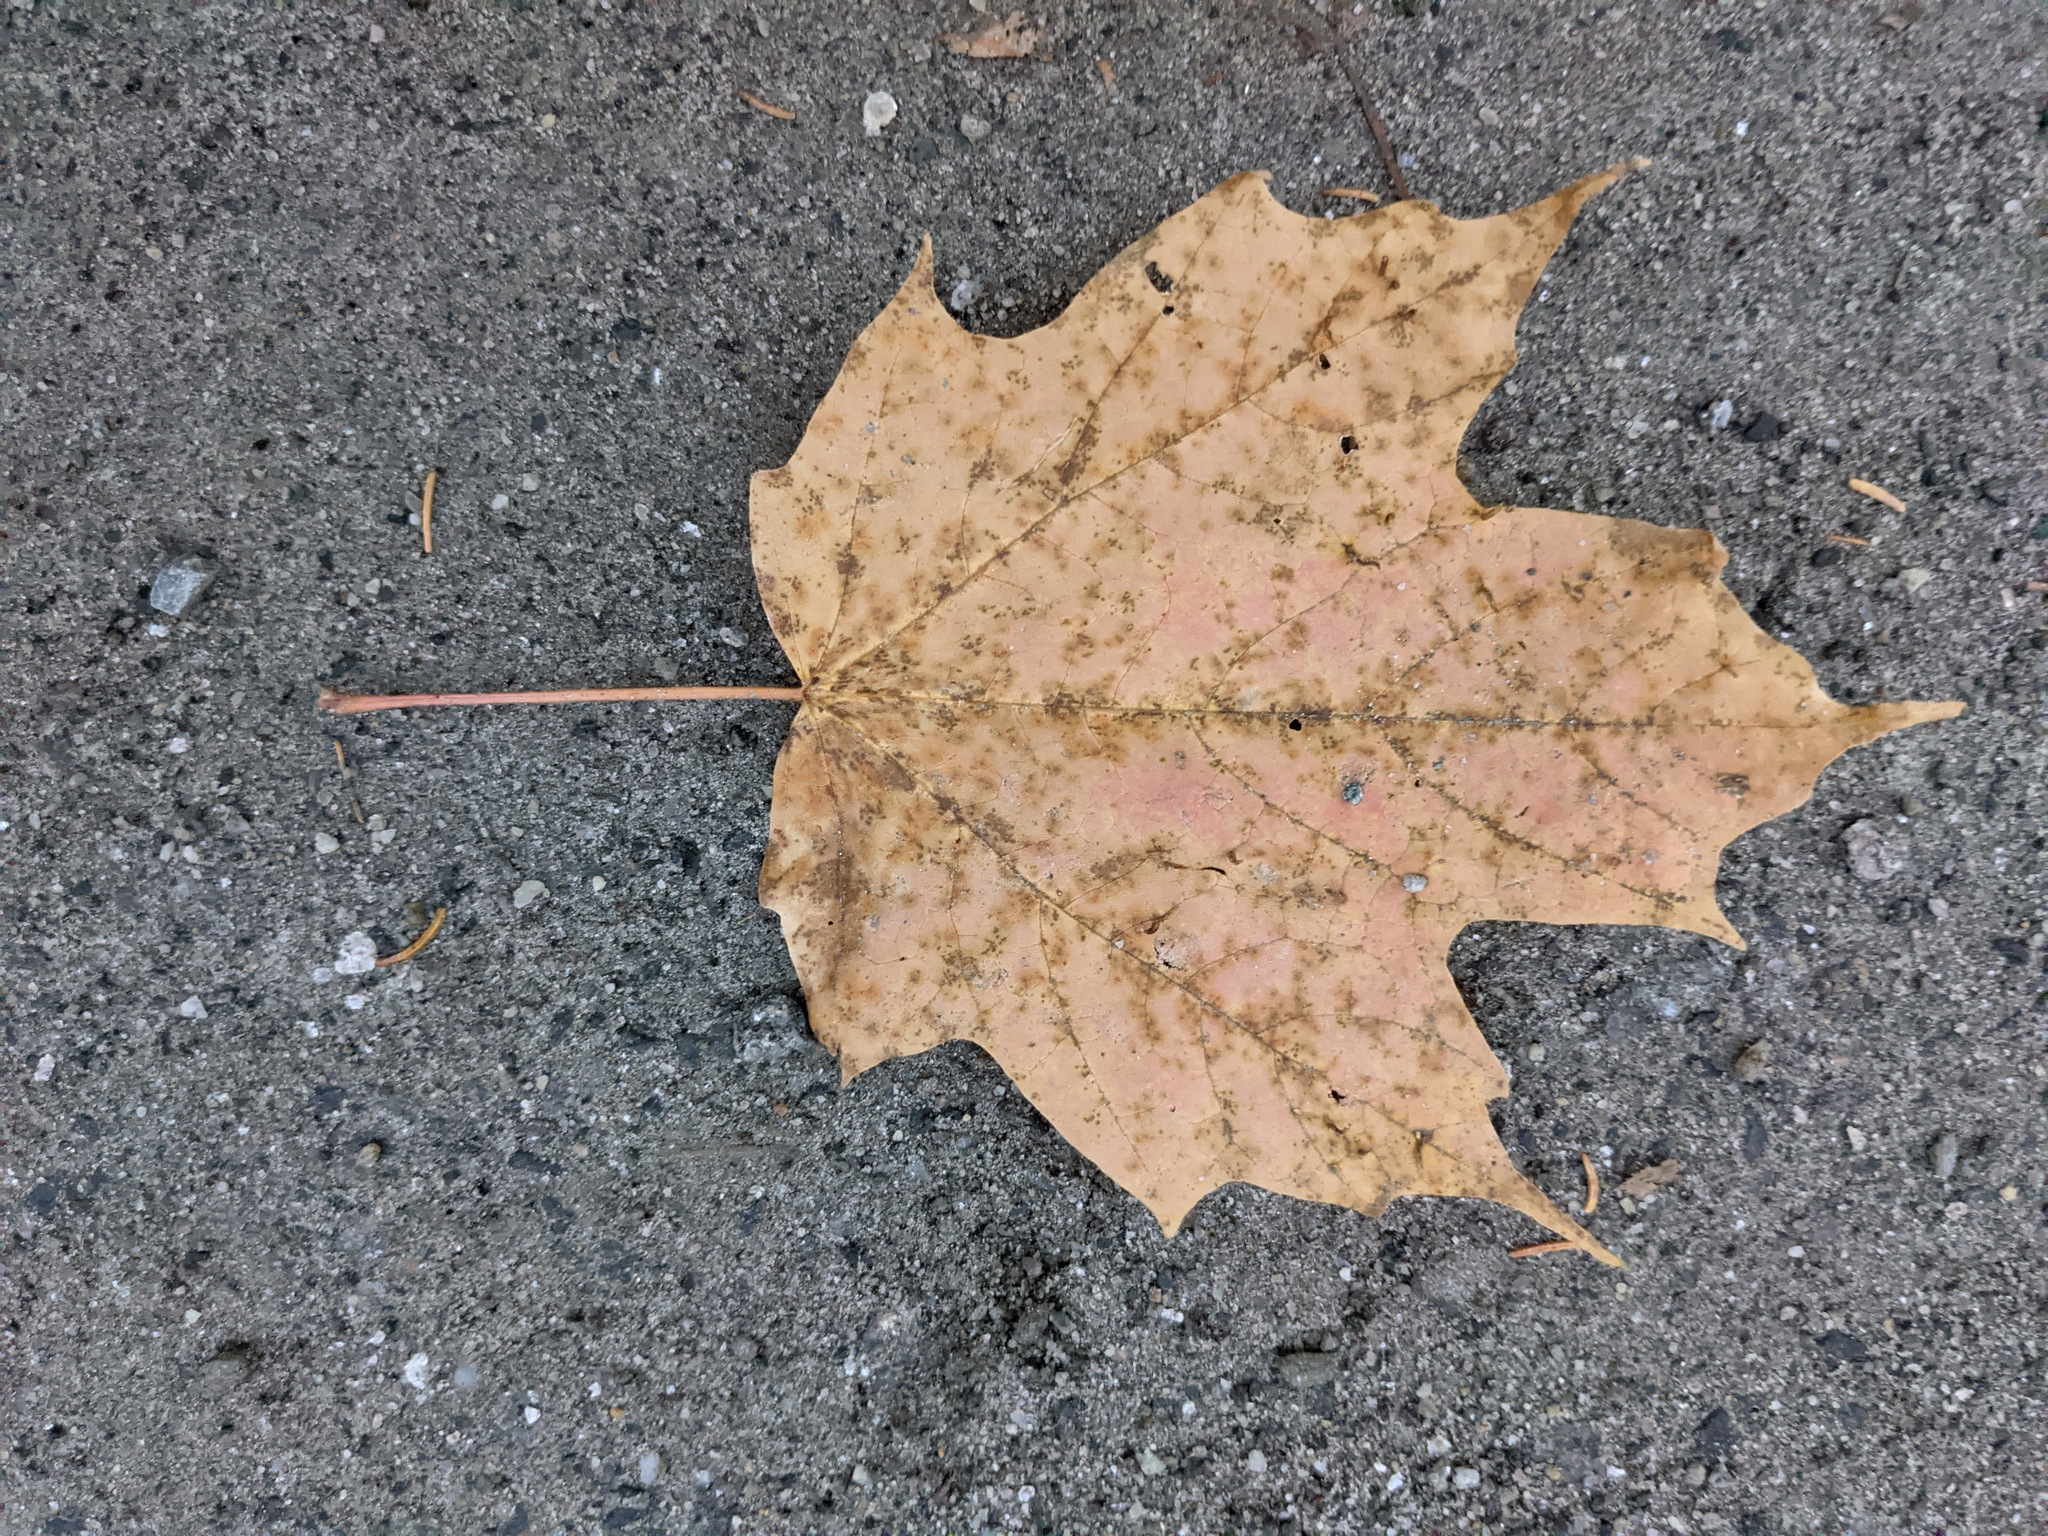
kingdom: Plantae
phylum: Tracheophyta
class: Magnoliopsida
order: Sapindales
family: Sapindaceae
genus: Acer
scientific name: Acer saccharum
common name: Sugar maple
